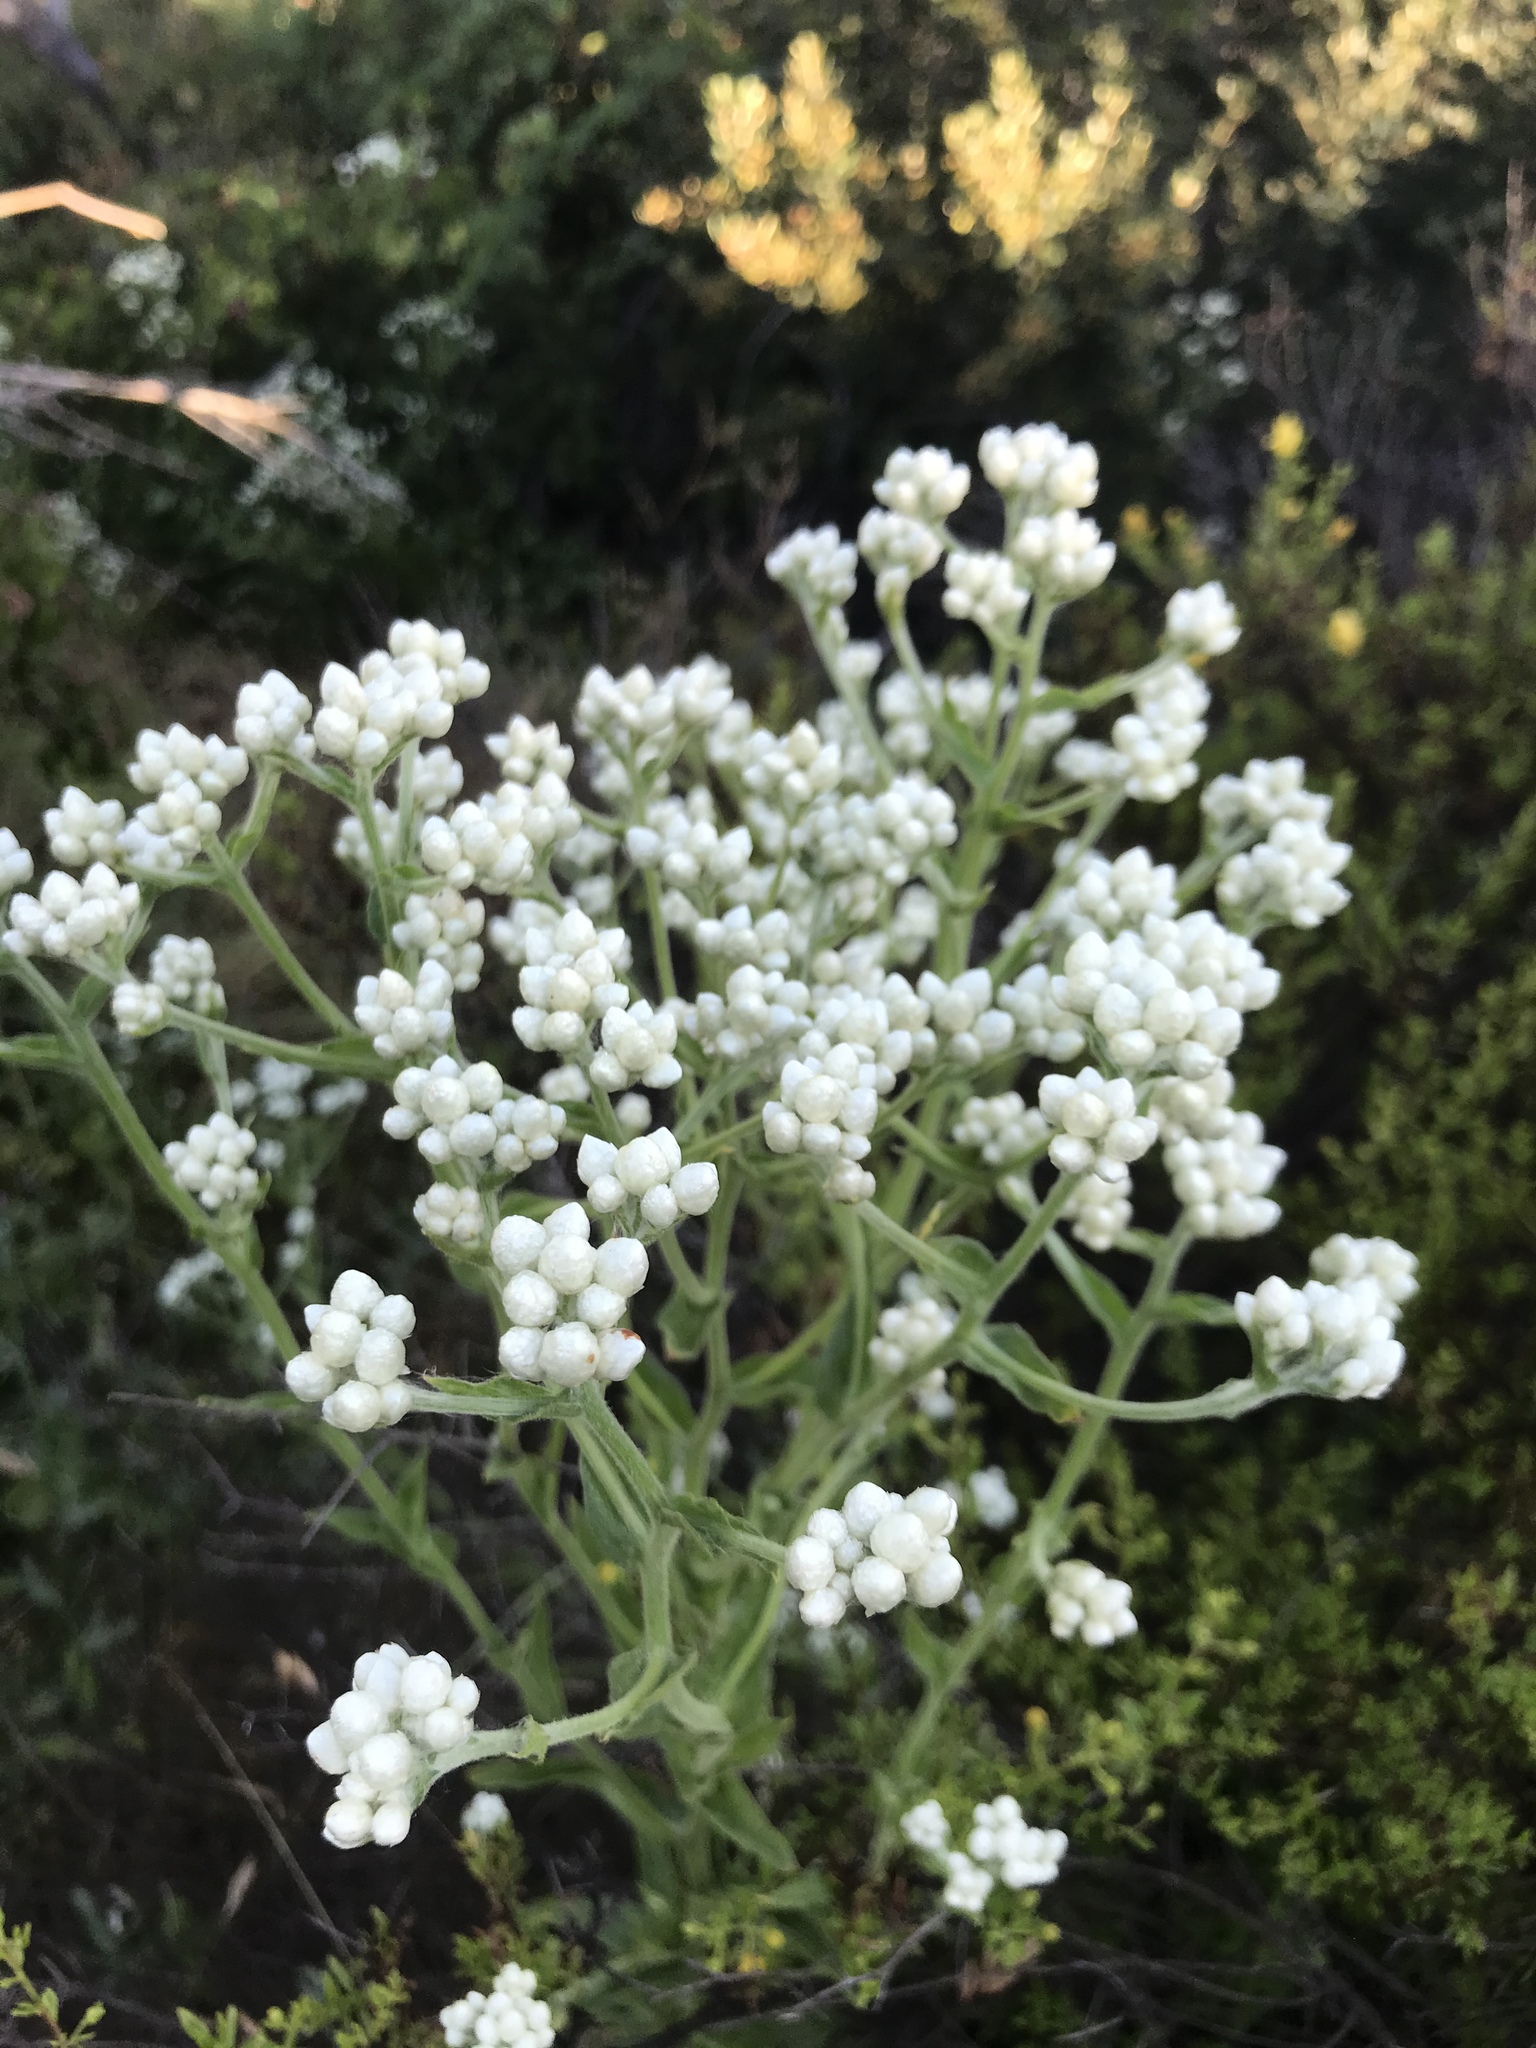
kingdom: Plantae
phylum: Tracheophyta
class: Magnoliopsida
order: Asterales
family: Asteraceae
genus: Pseudognaphalium
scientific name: Pseudognaphalium californicum
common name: California rabbit-tobacco
